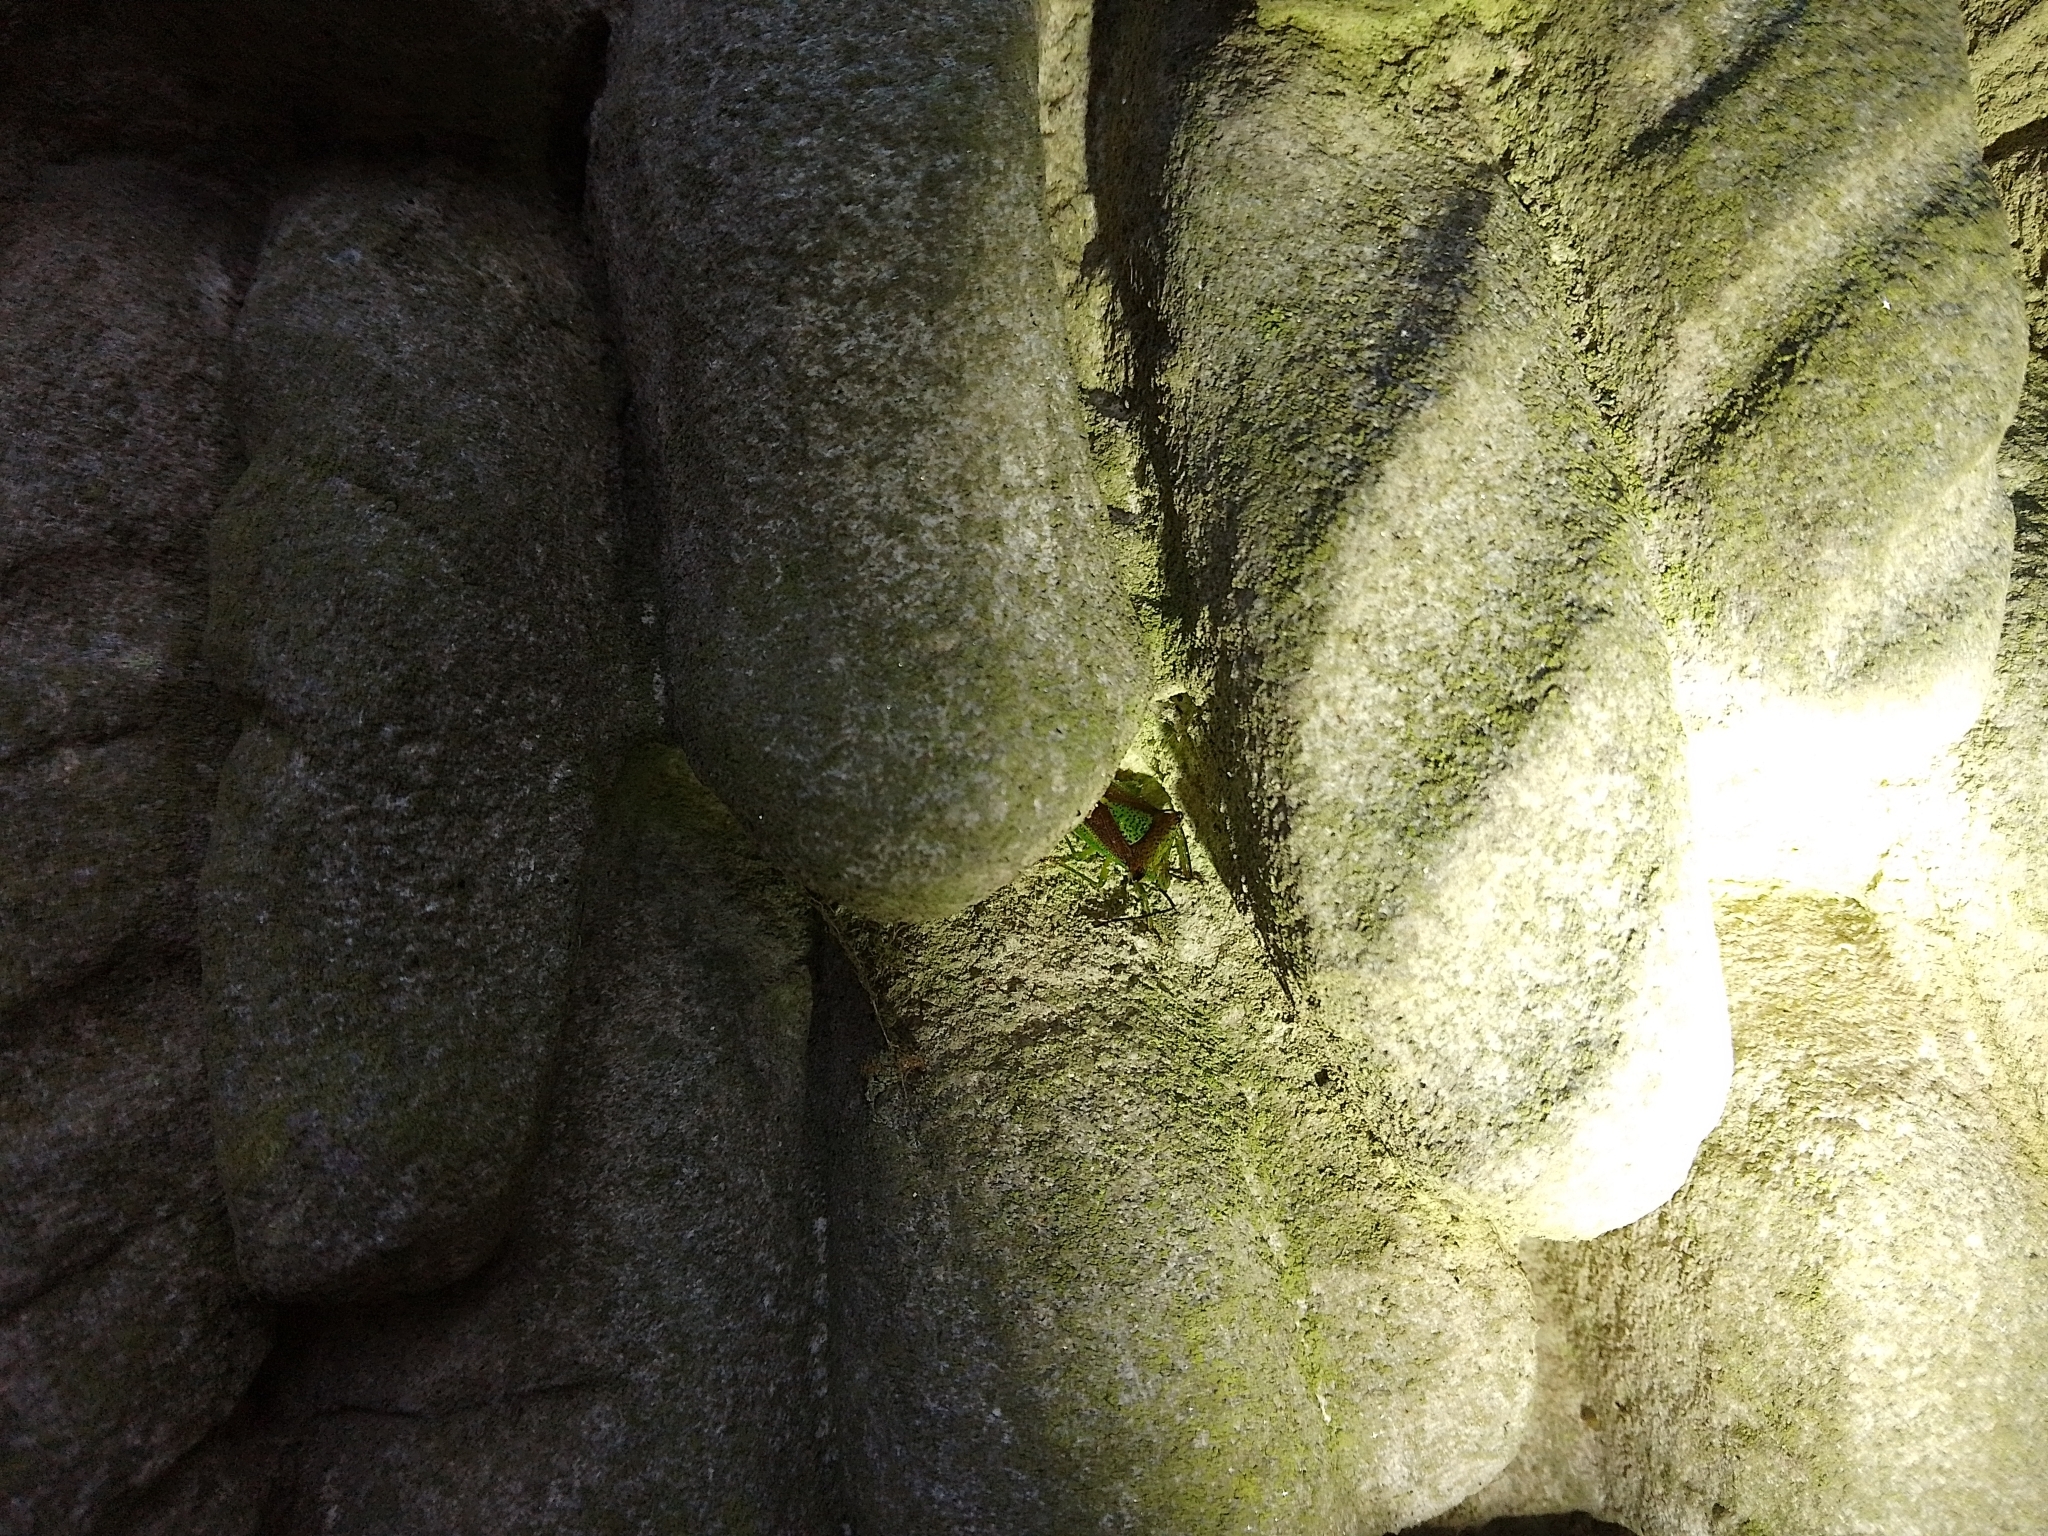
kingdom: Animalia
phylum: Arthropoda
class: Insecta
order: Hemiptera
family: Acanthosomatidae
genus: Acanthosoma
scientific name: Acanthosoma haemorrhoidale
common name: Hawthorn shieldbug
